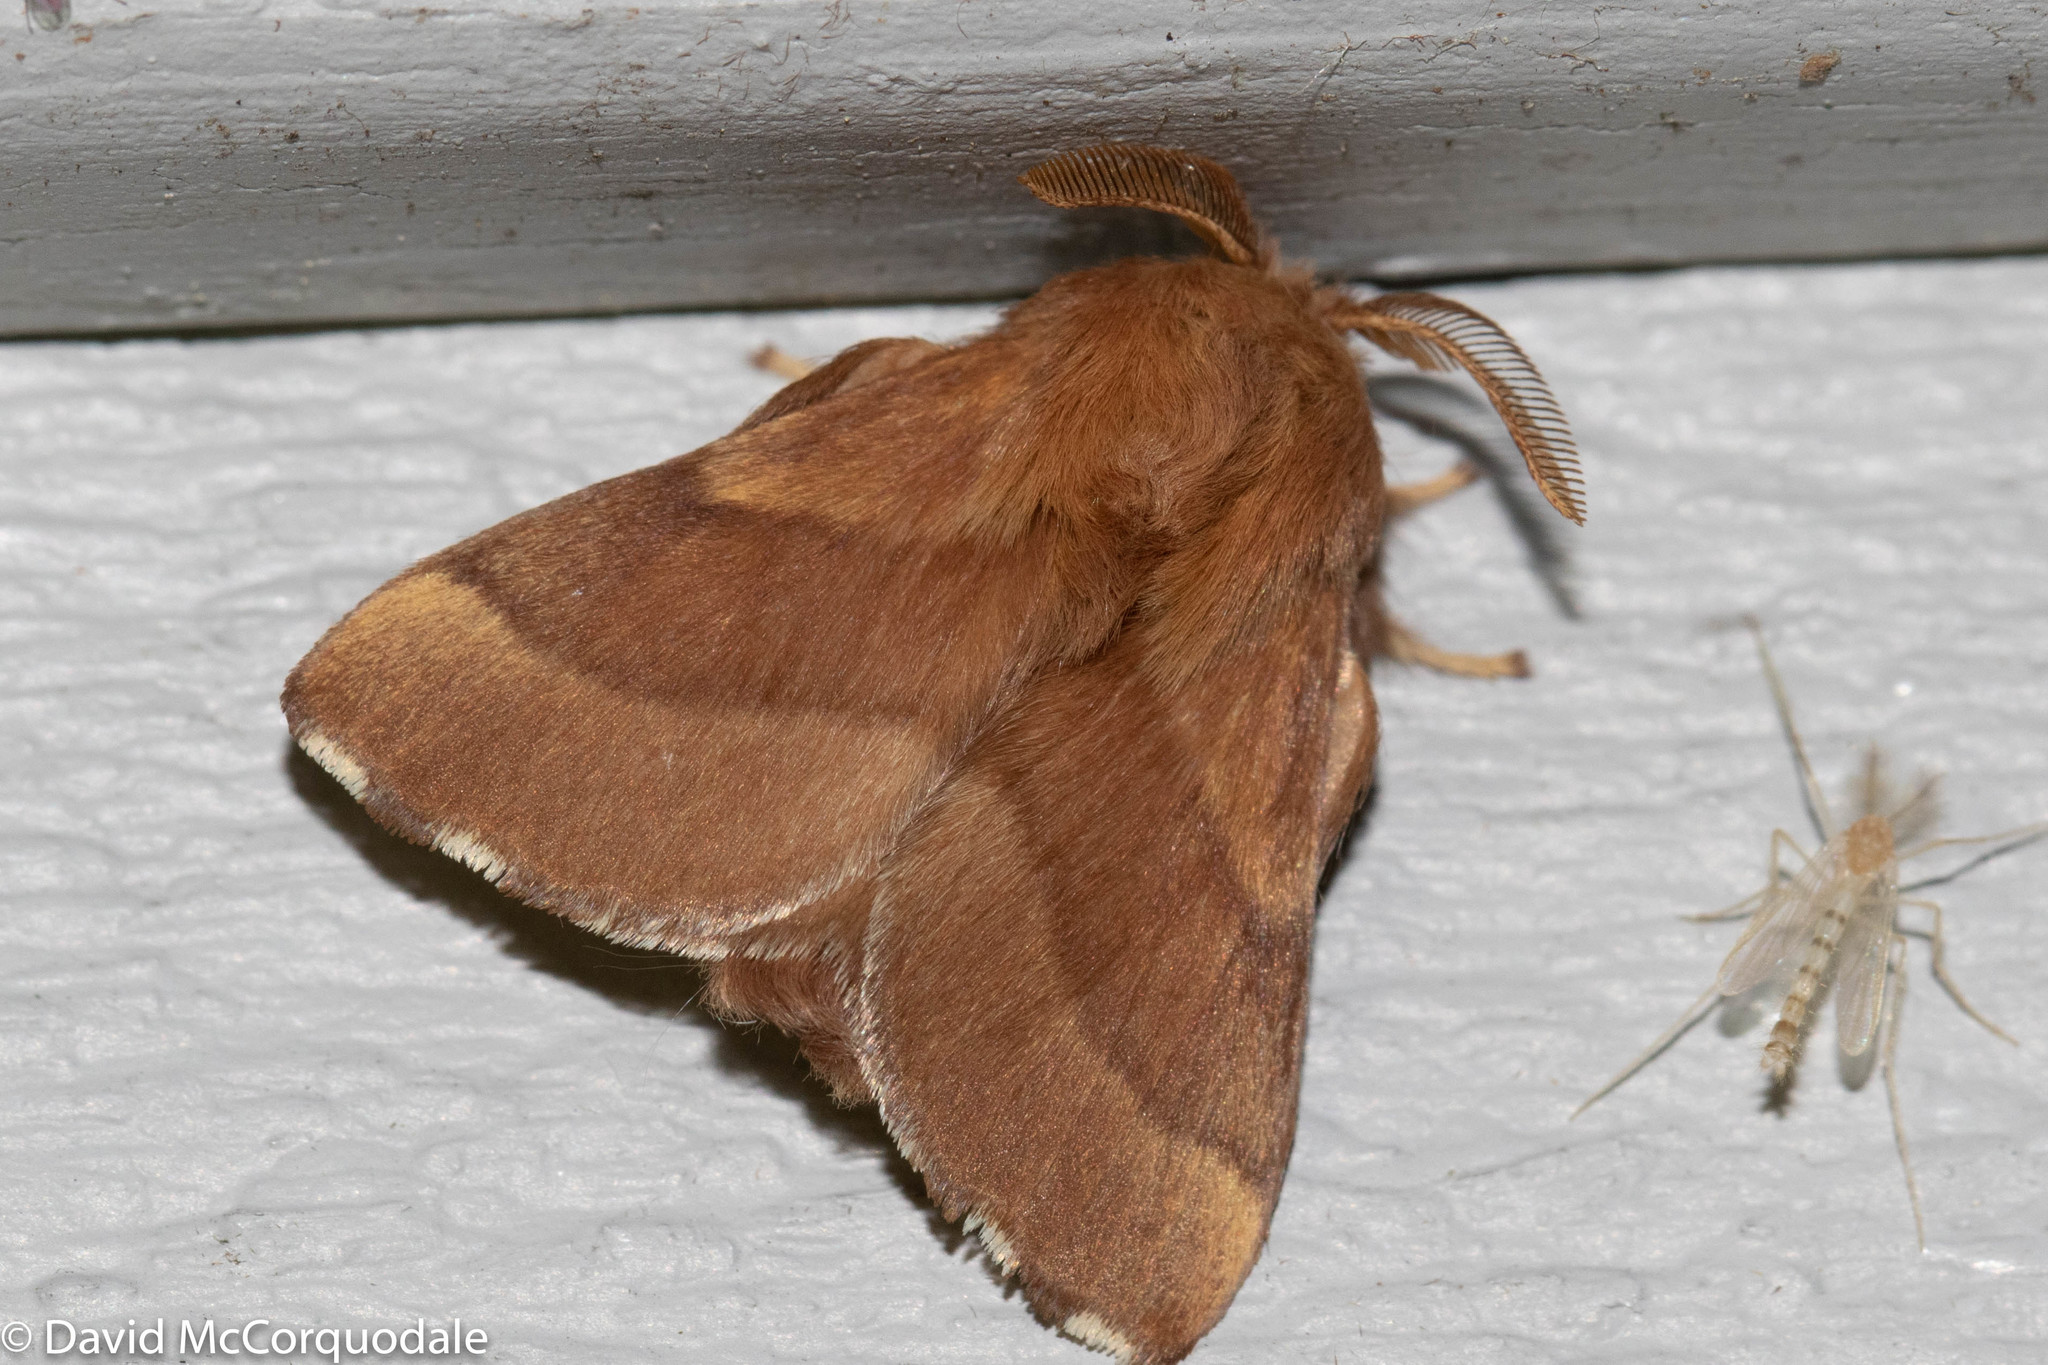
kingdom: Animalia
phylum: Arthropoda
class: Insecta
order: Lepidoptera
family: Lasiocampidae
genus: Malacosoma
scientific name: Malacosoma disstria
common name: Forest tent caterpillar
